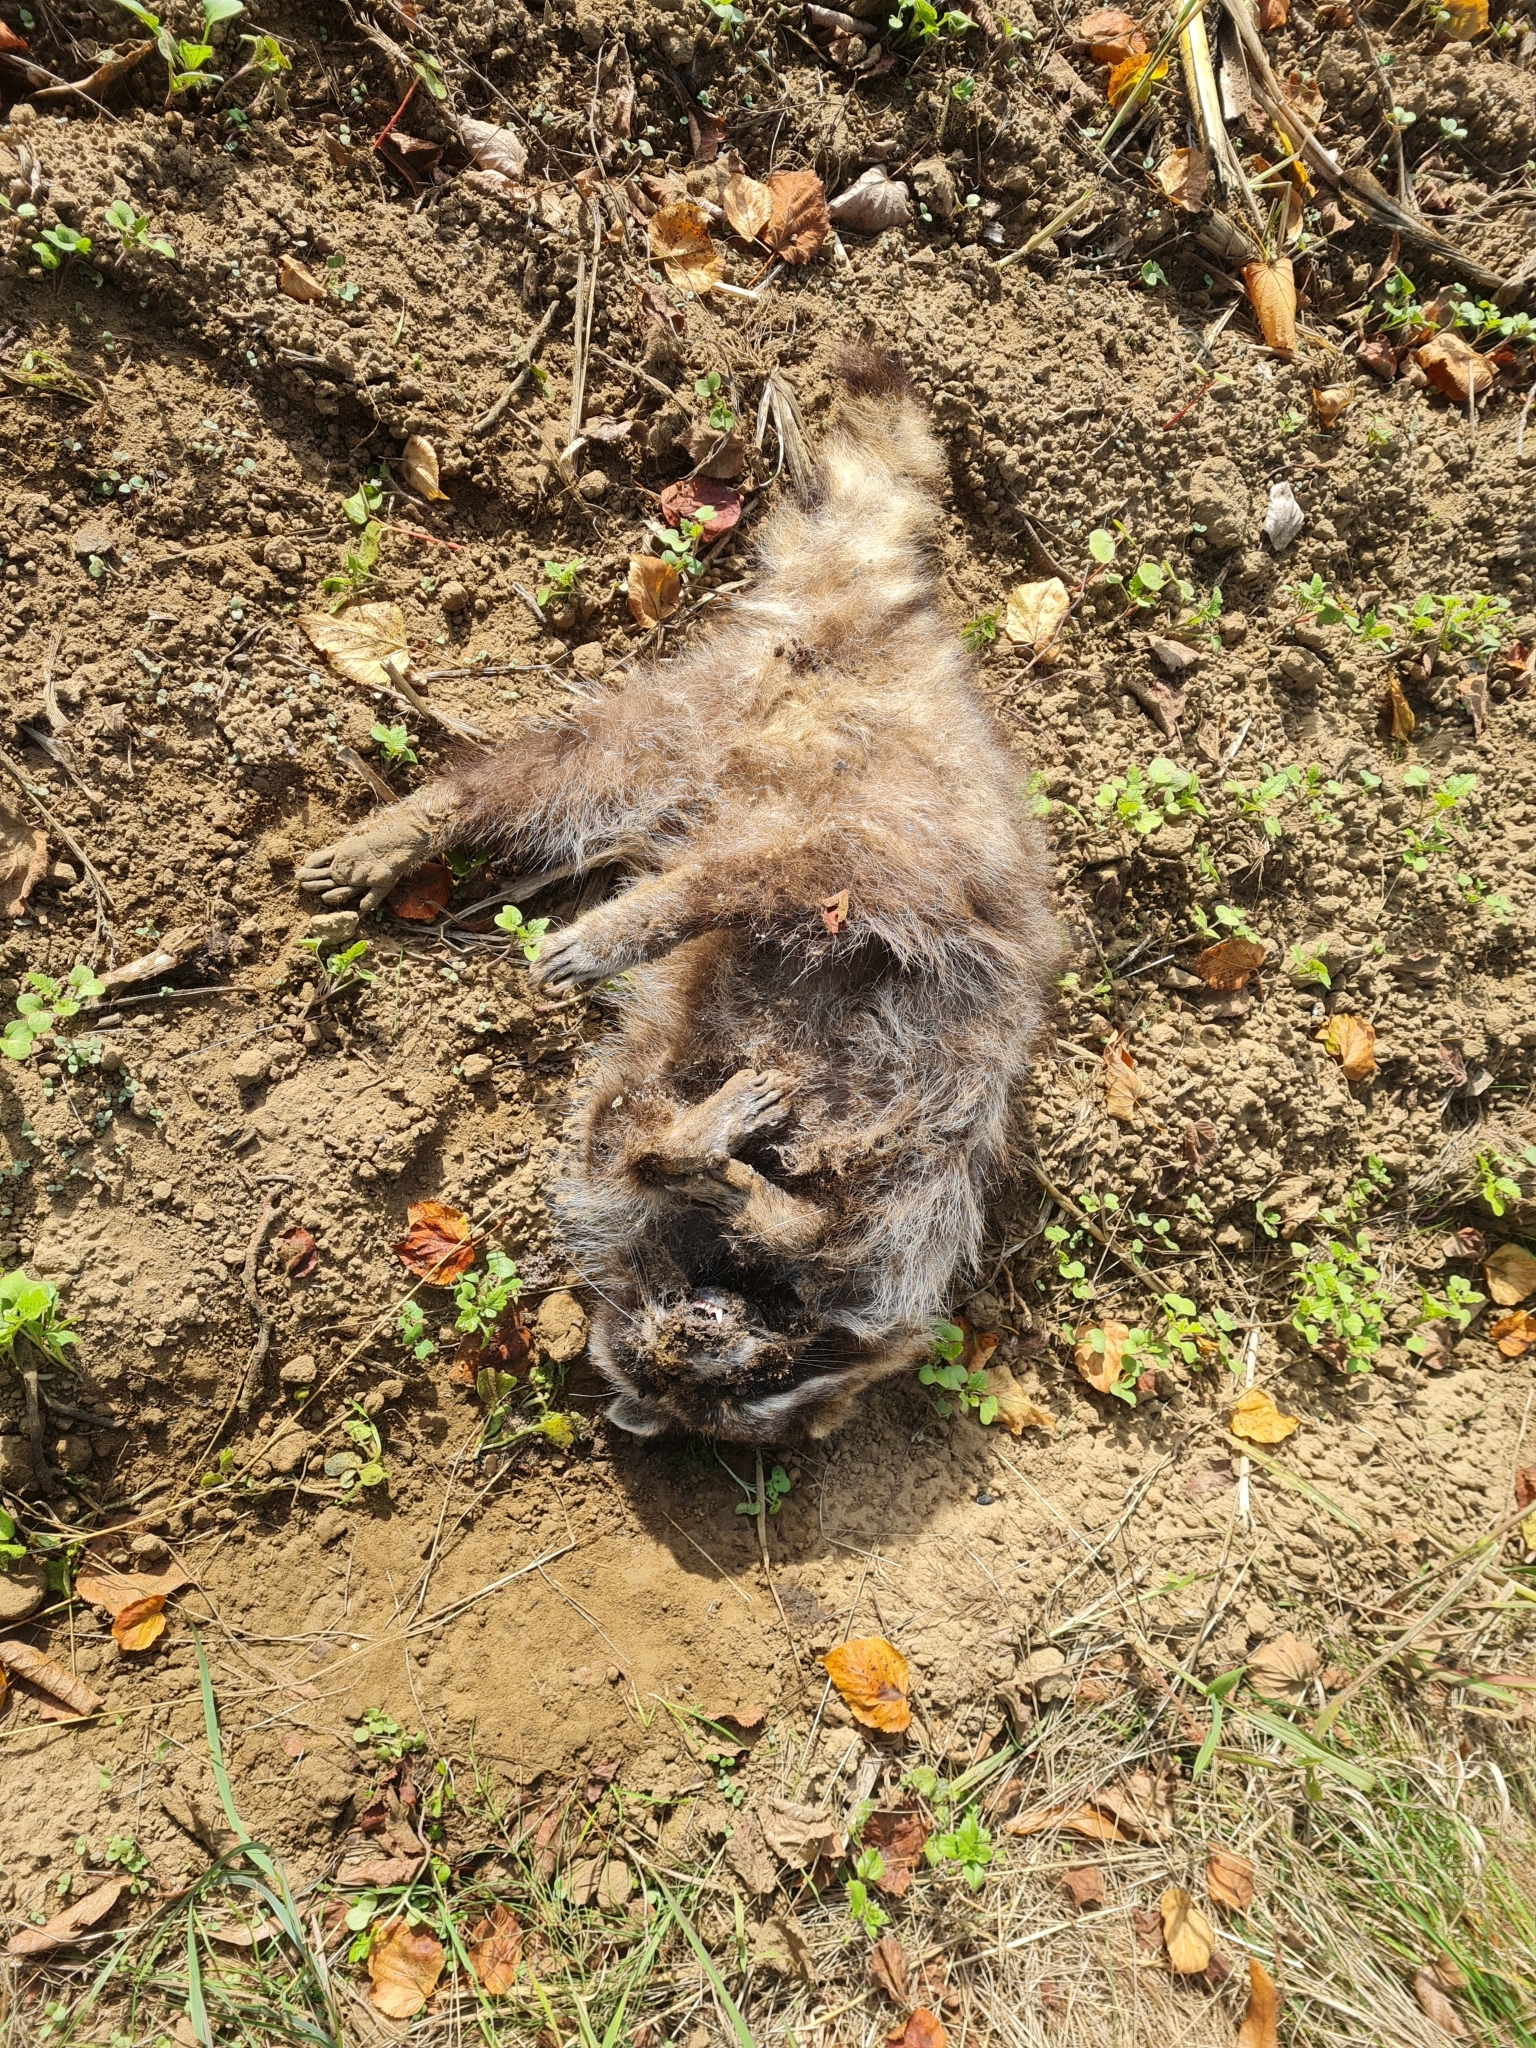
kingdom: Animalia
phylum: Chordata
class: Mammalia
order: Carnivora
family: Procyonidae
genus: Procyon
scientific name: Procyon lotor
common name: Raccoon
